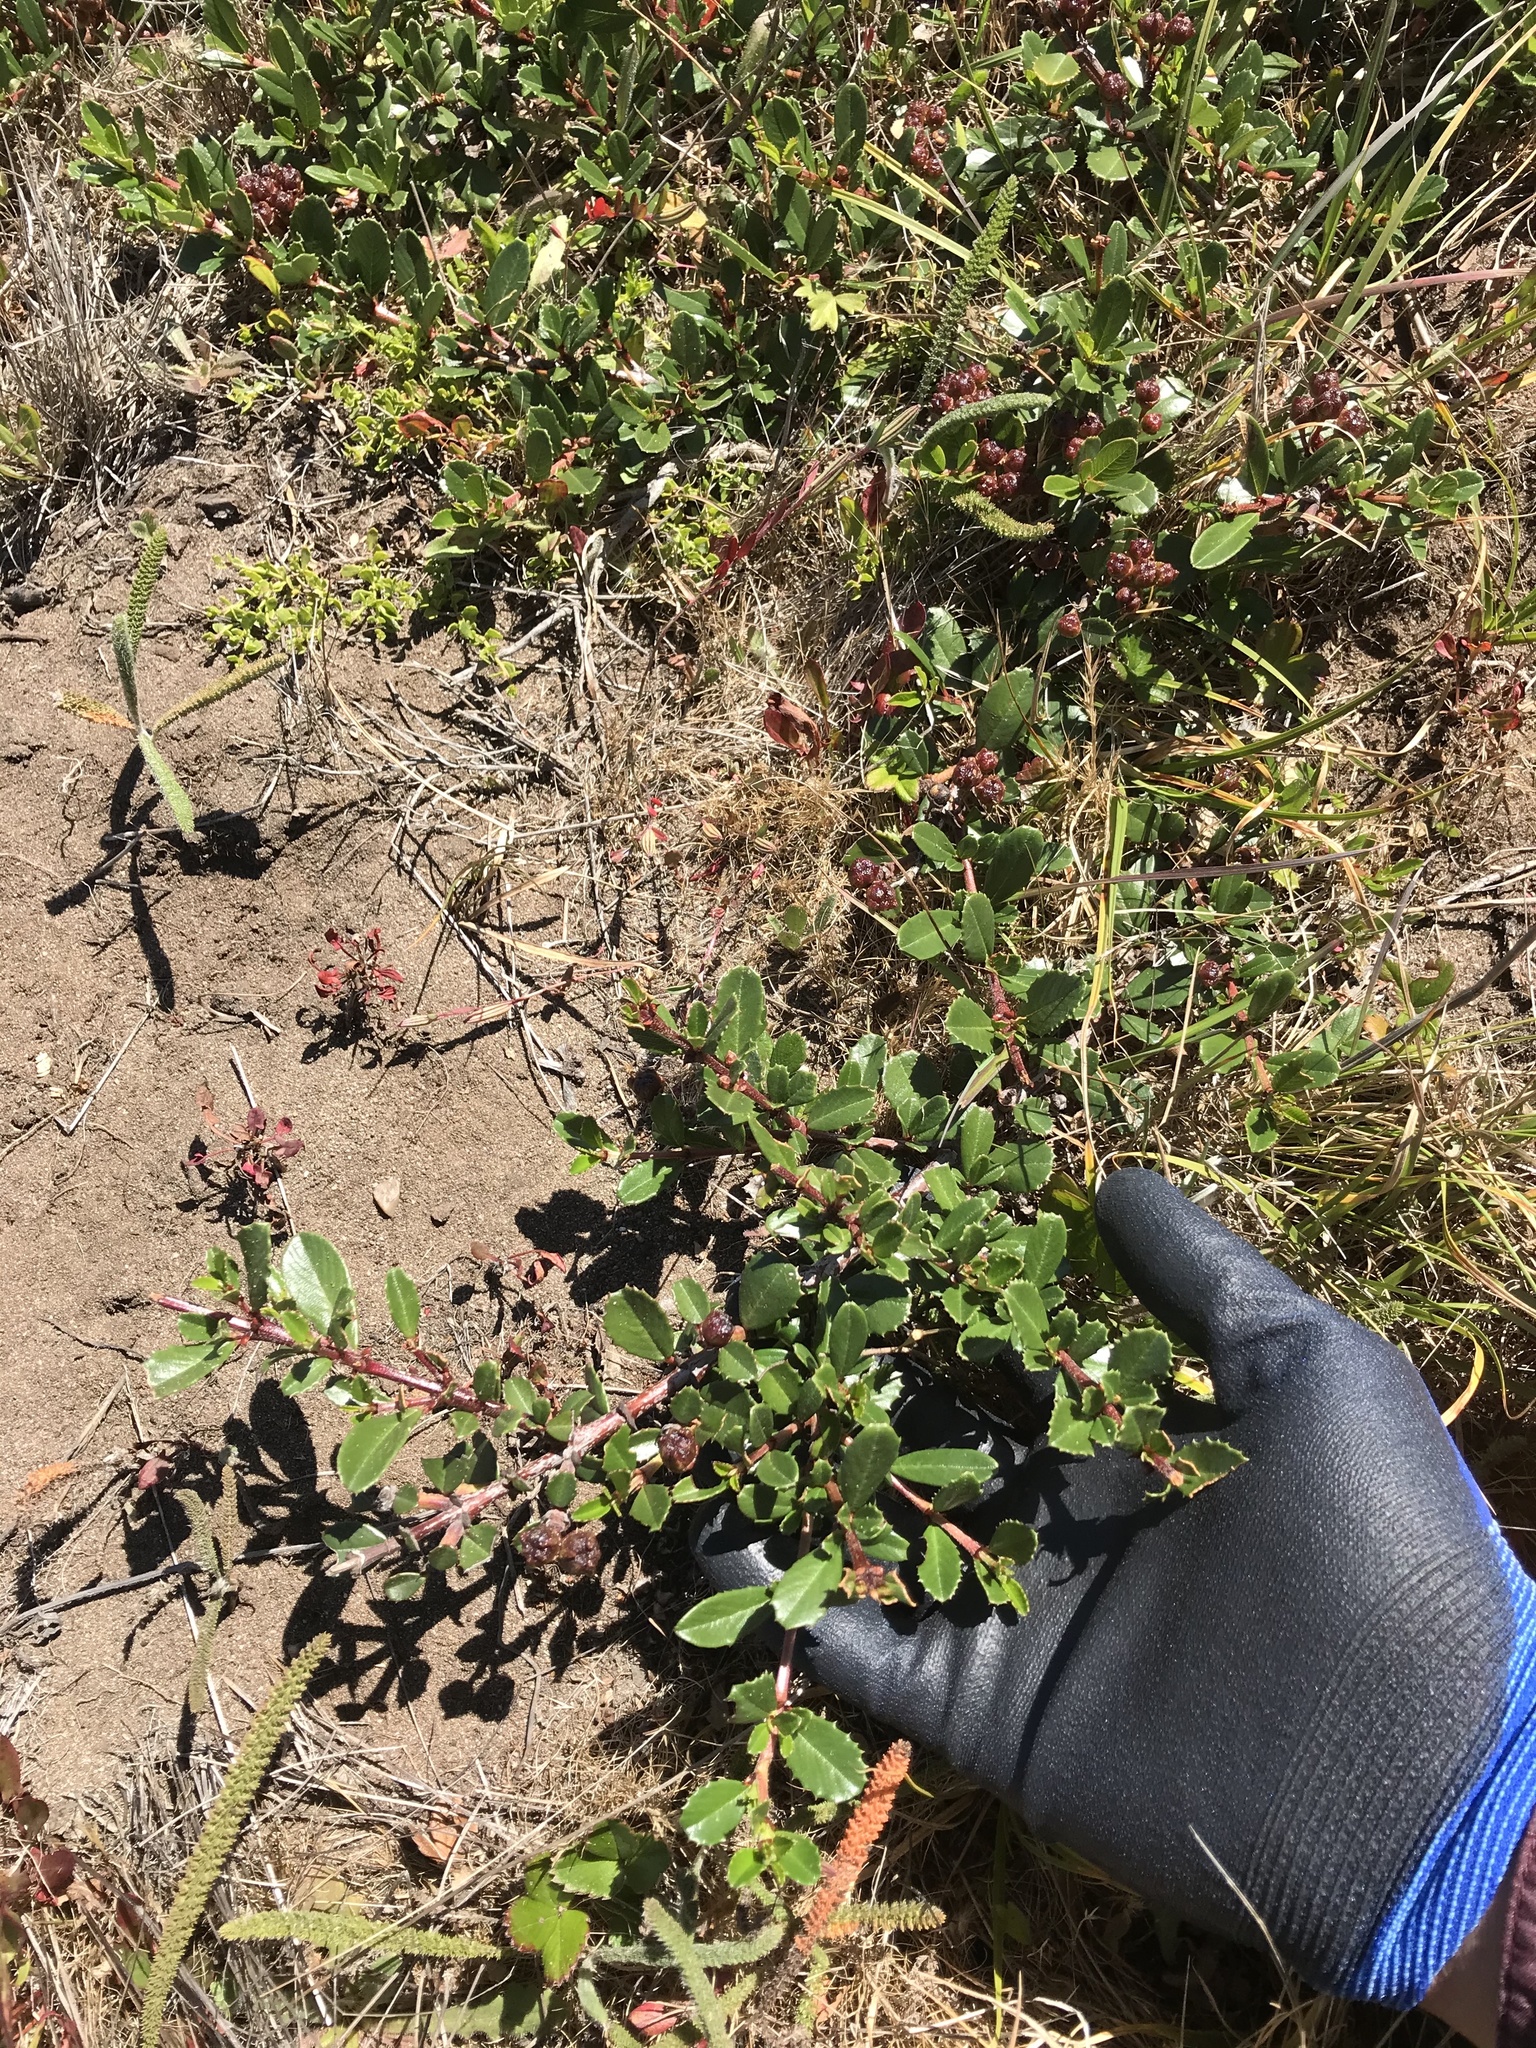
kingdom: Plantae
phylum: Tracheophyta
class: Magnoliopsida
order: Rosales
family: Rhamnaceae
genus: Ceanothus
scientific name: Ceanothus gloriosus
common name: Point reyes ceanothus
